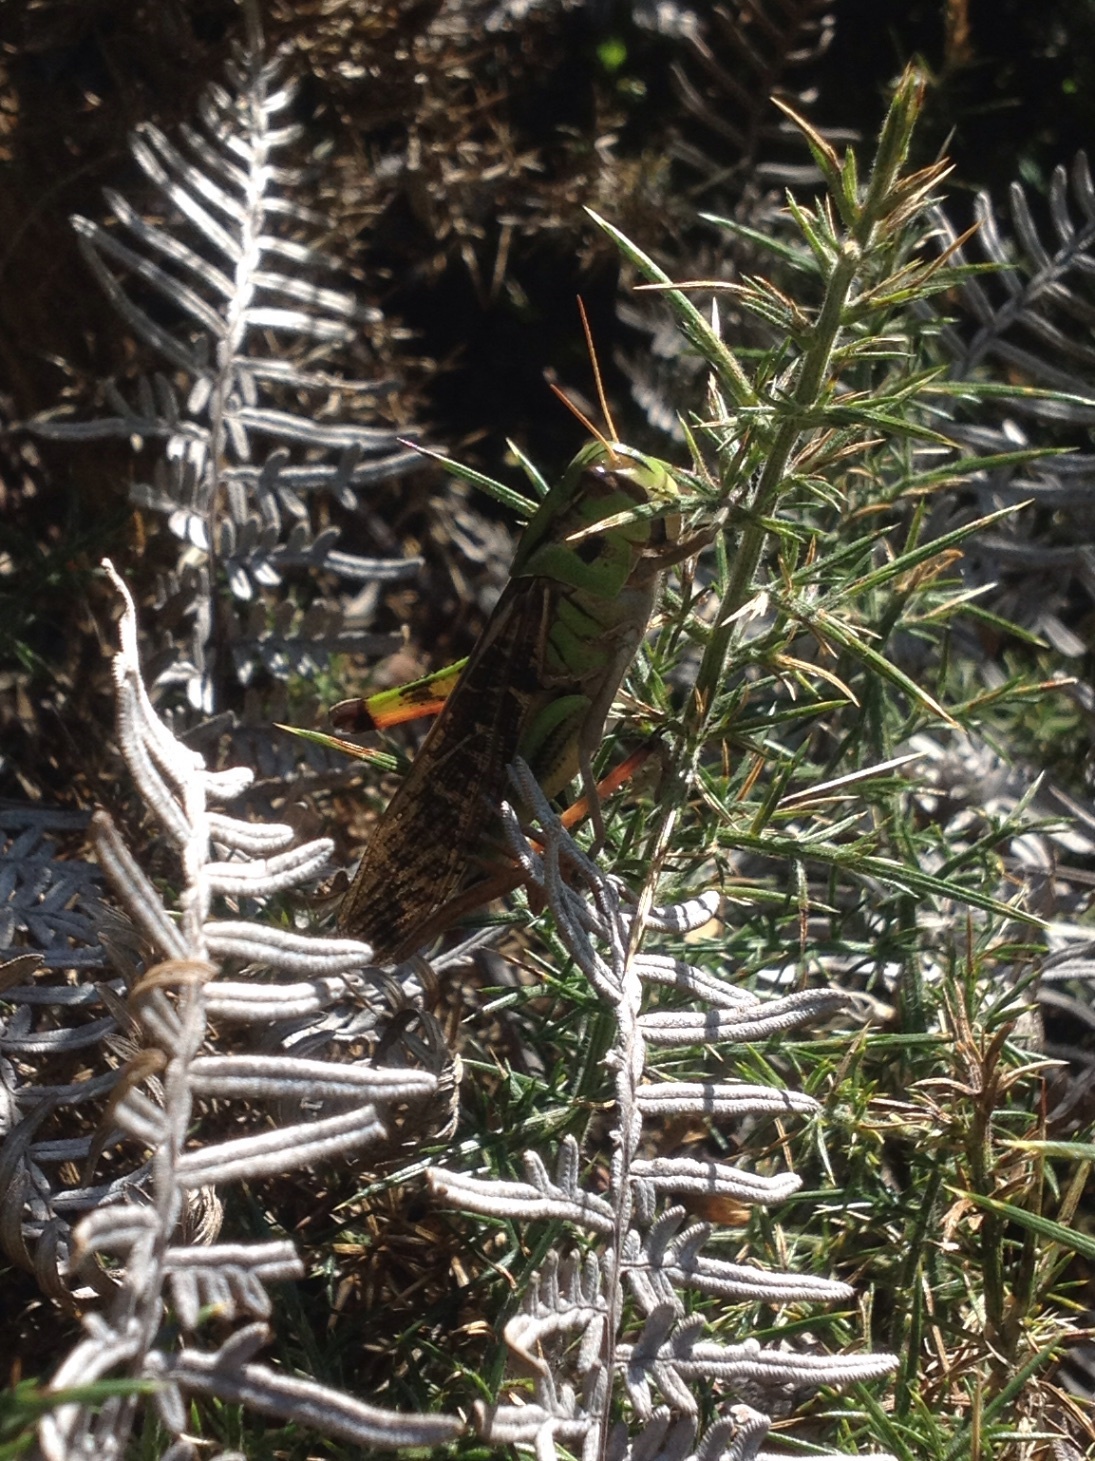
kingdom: Animalia
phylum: Arthropoda
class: Insecta
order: Orthoptera
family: Acrididae
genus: Locusta
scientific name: Locusta migratoria
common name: Migratory locust
